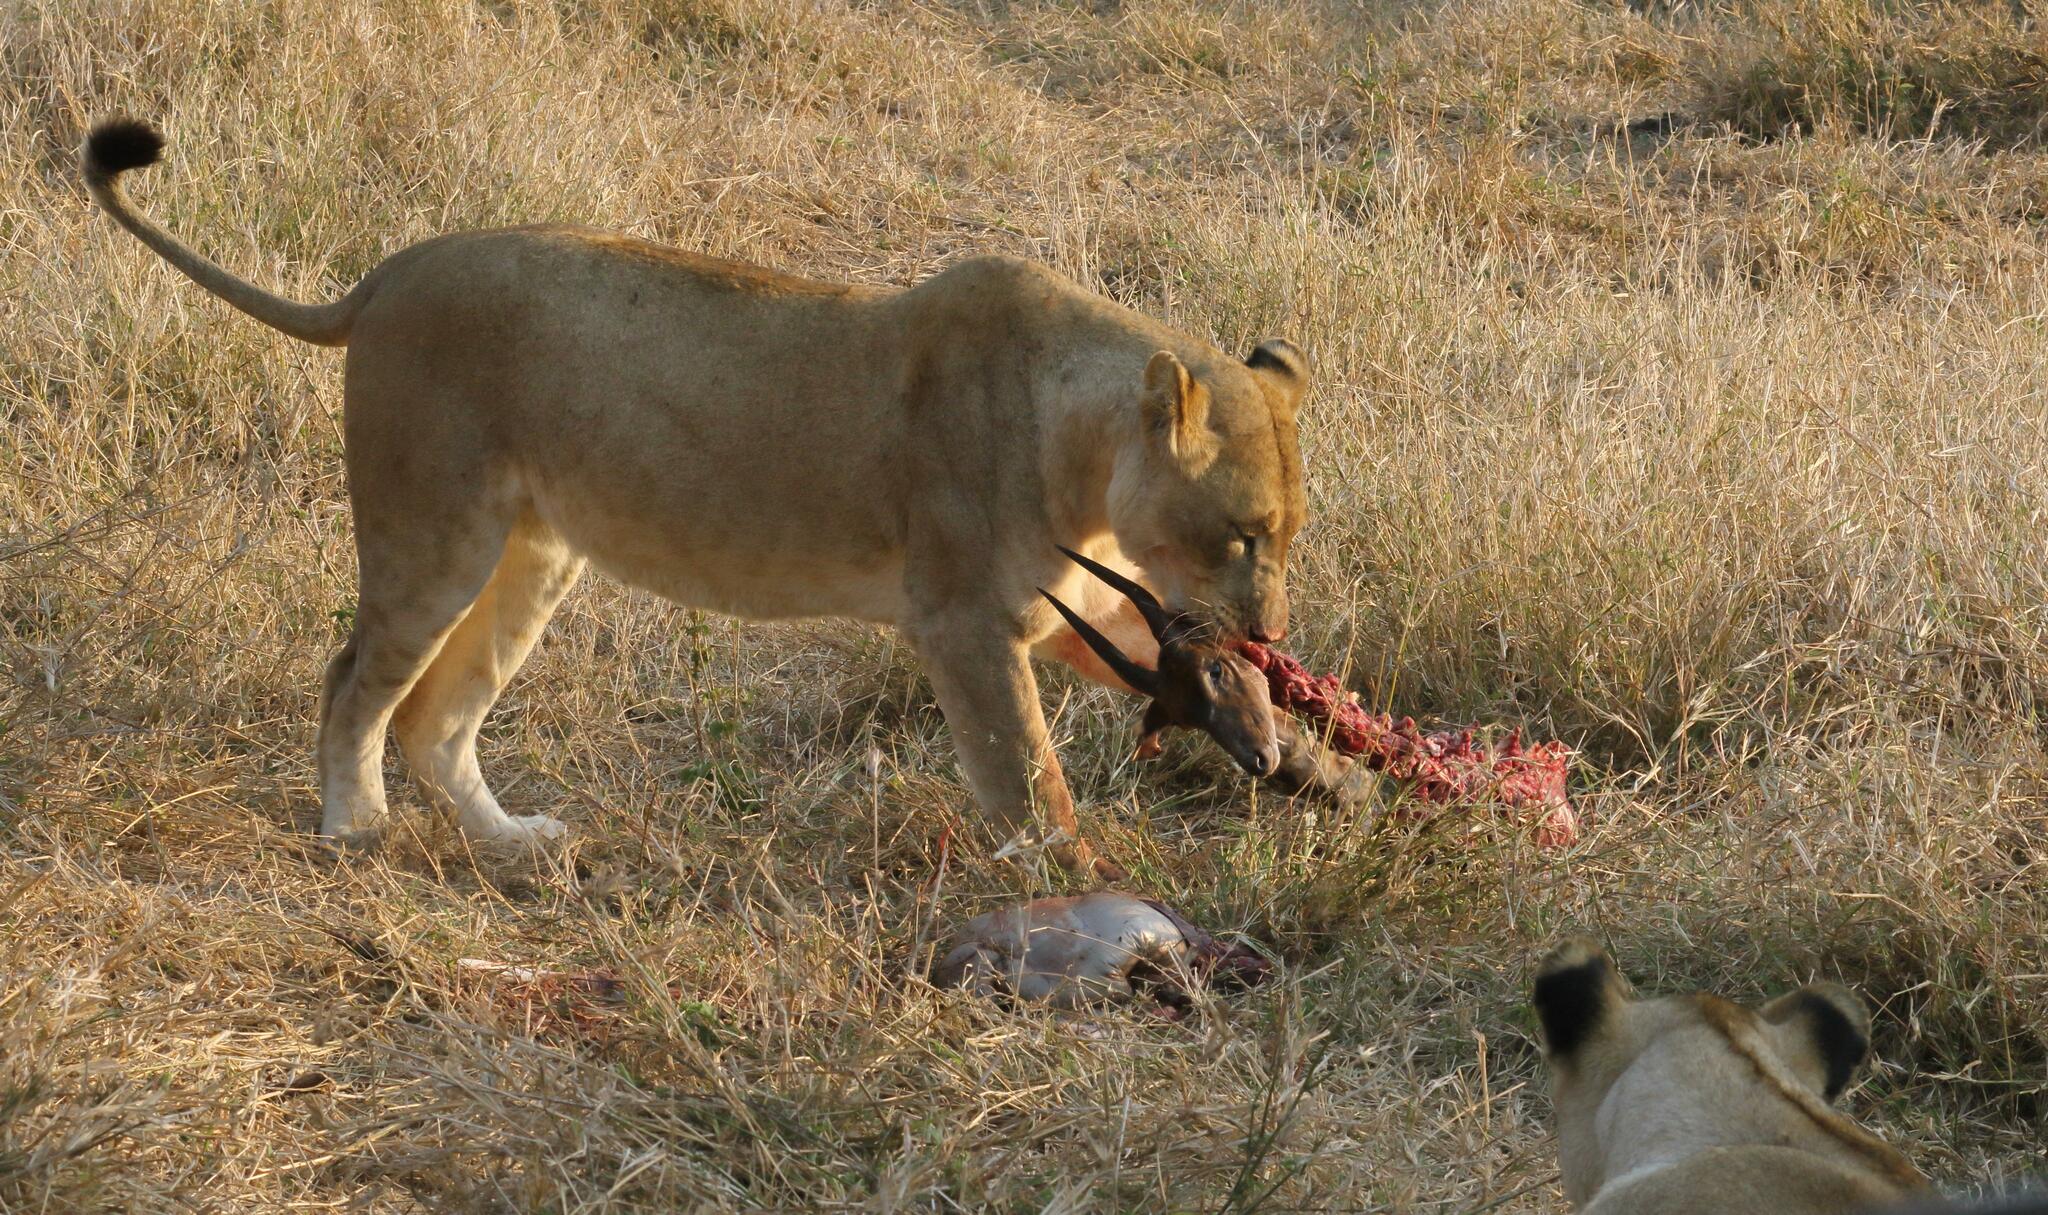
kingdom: Animalia
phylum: Chordata
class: Mammalia
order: Carnivora
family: Felidae
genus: Panthera
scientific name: Panthera leo
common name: Lion
